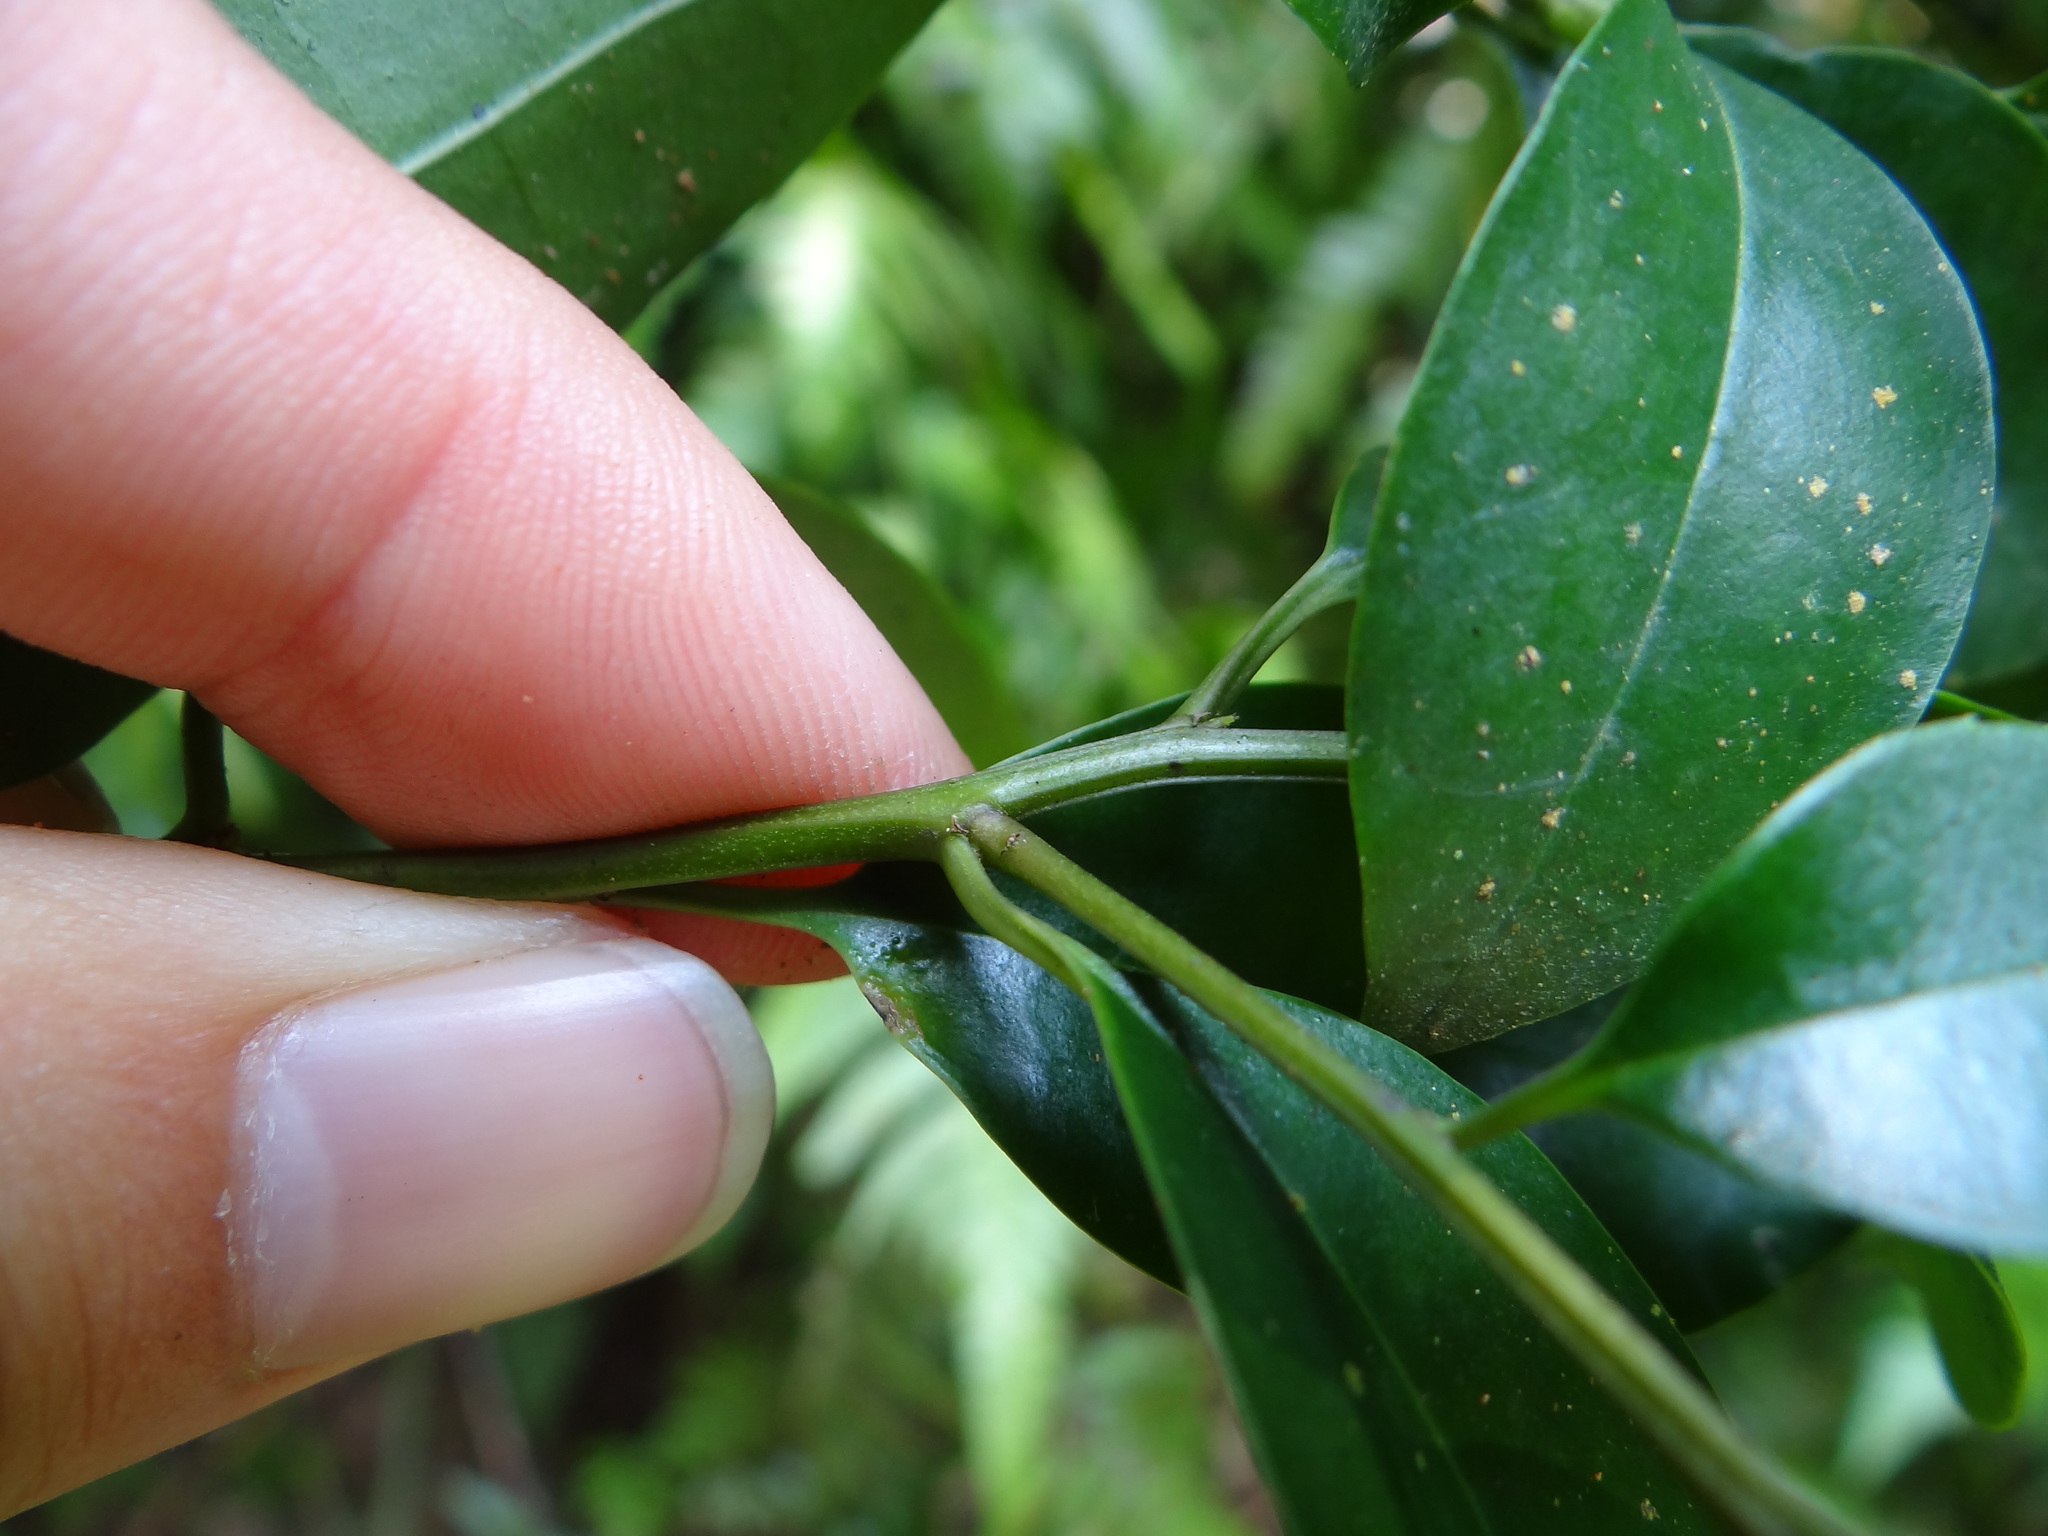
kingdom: Plantae
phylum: Tracheophyta
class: Magnoliopsida
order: Aquifoliales
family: Aquifoliaceae
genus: Ilex
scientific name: Ilex rotunda
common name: Kurogane holly
